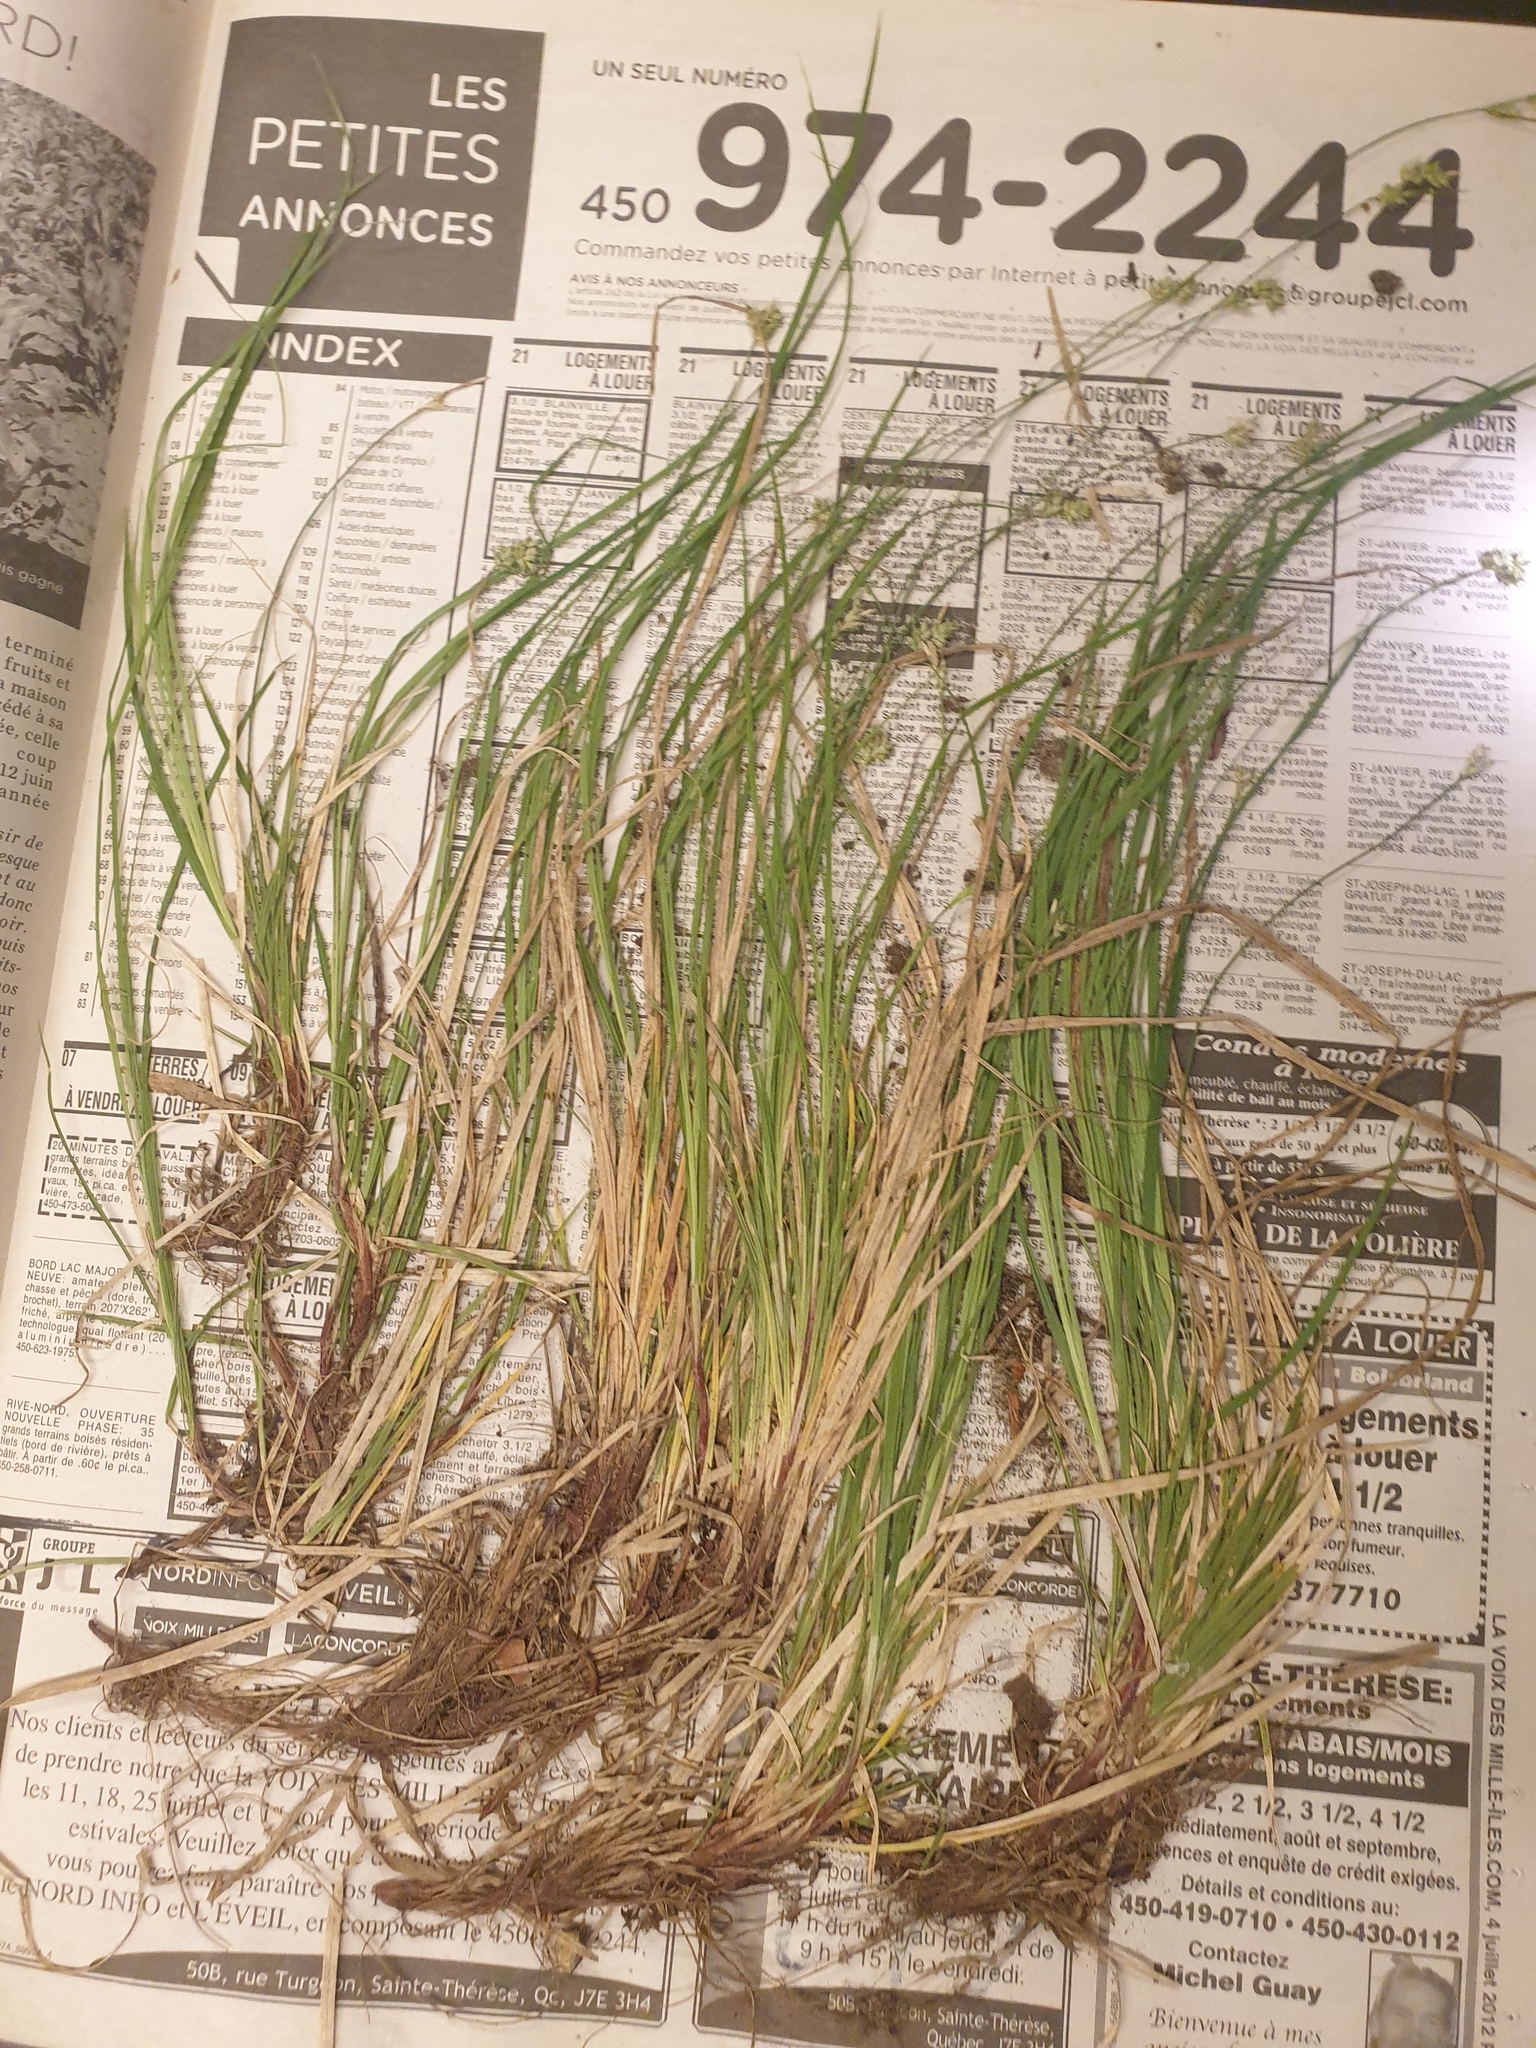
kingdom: Plantae
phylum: Tracheophyta
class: Liliopsida
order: Poales
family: Cyperaceae
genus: Carex
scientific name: Carex peckii
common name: Peck's oak sedge
